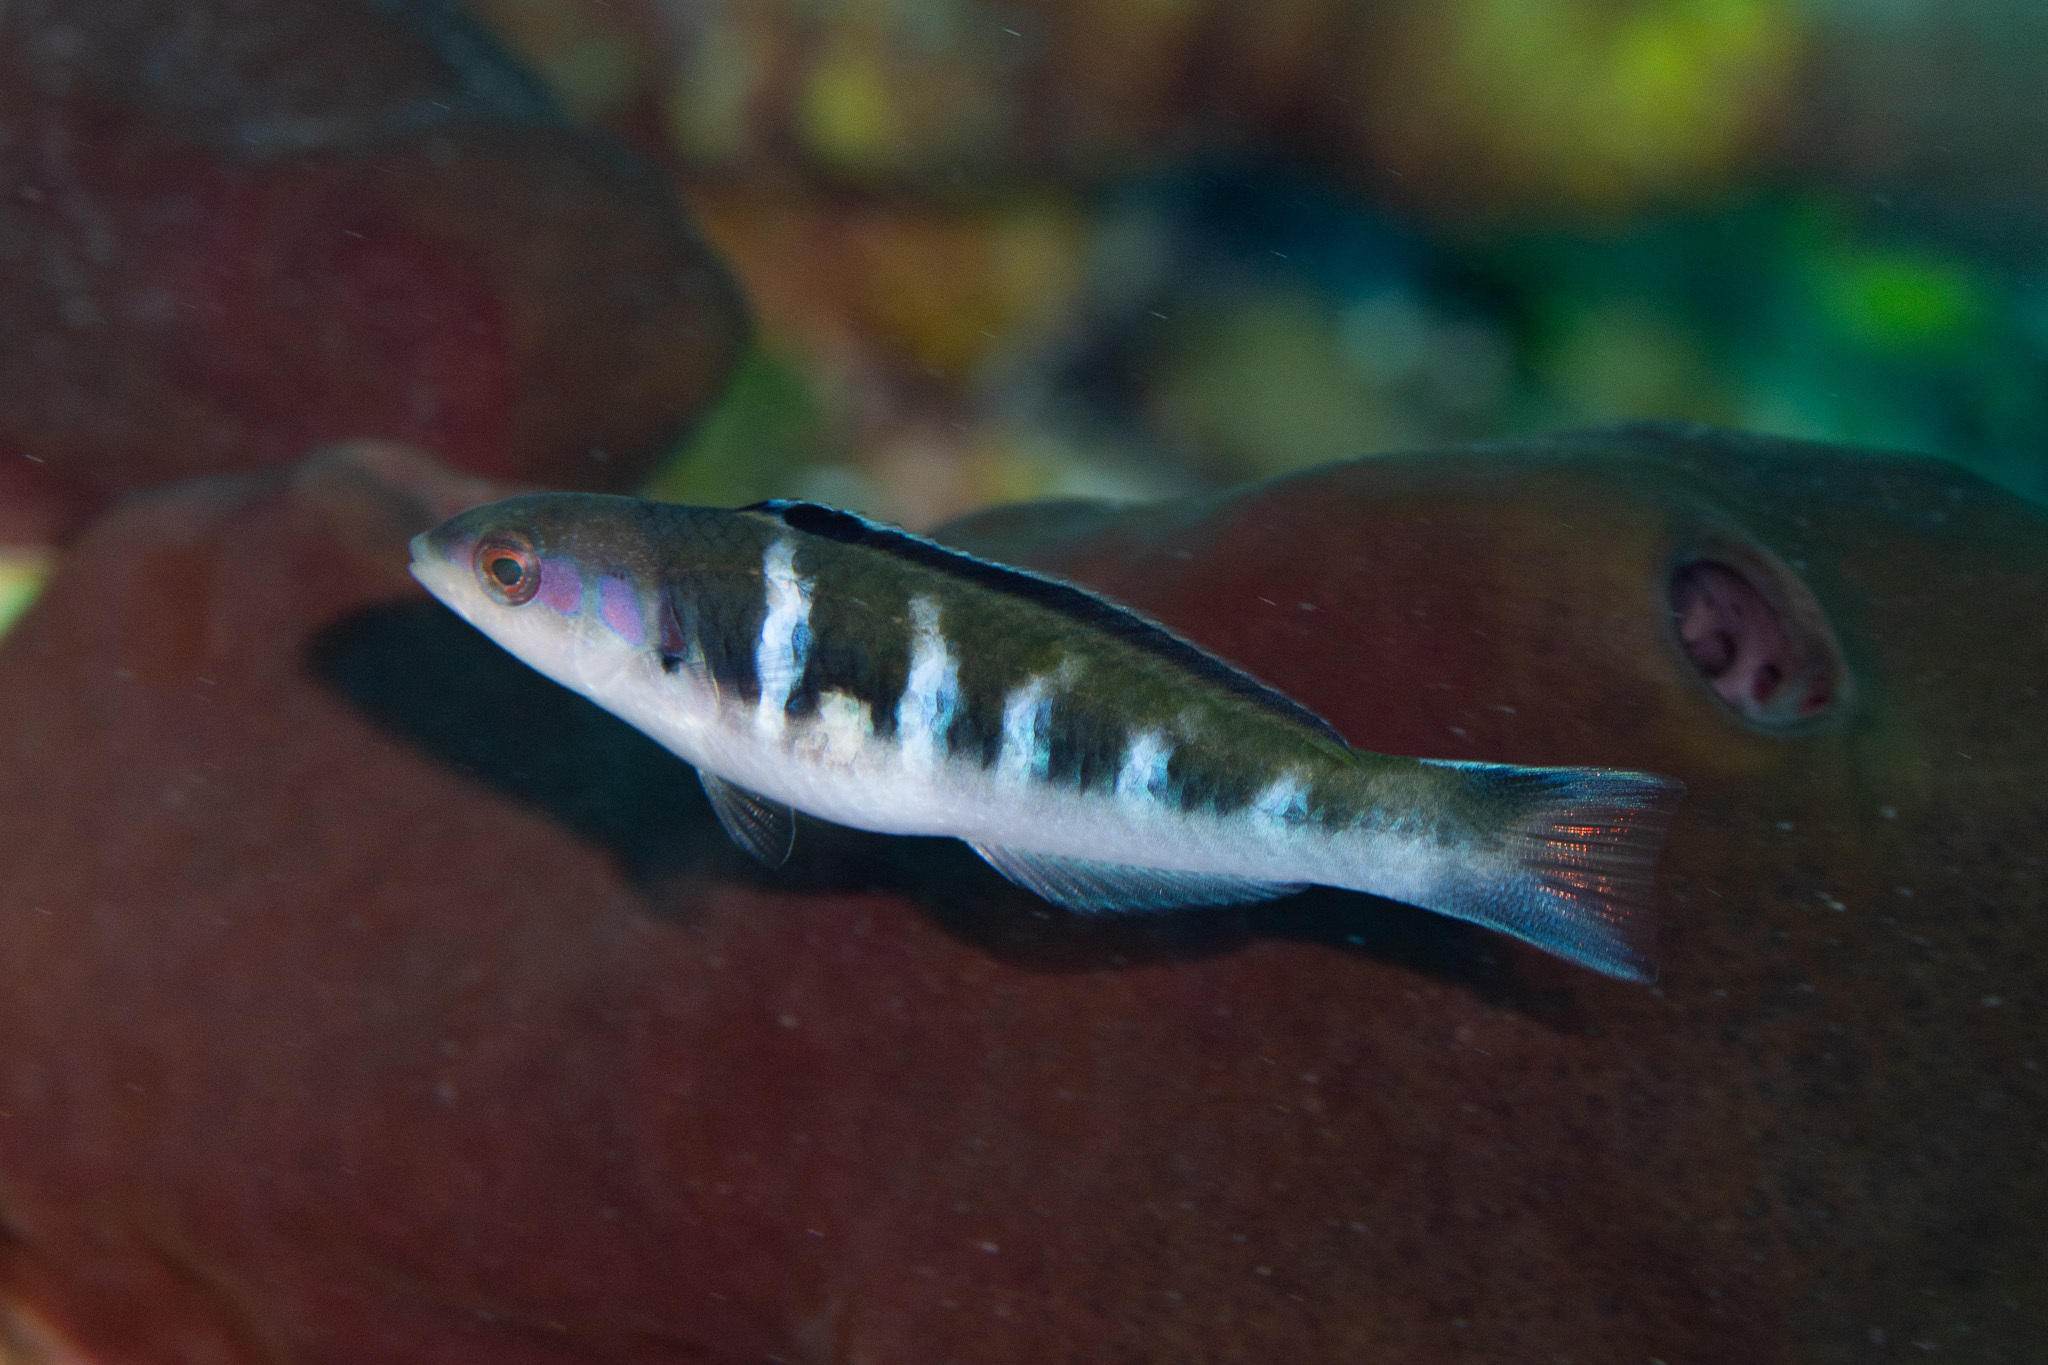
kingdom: Animalia
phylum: Chordata
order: Perciformes
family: Labridae
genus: Thalassoma
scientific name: Thalassoma bifasciatum
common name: Bluehead wrasse
